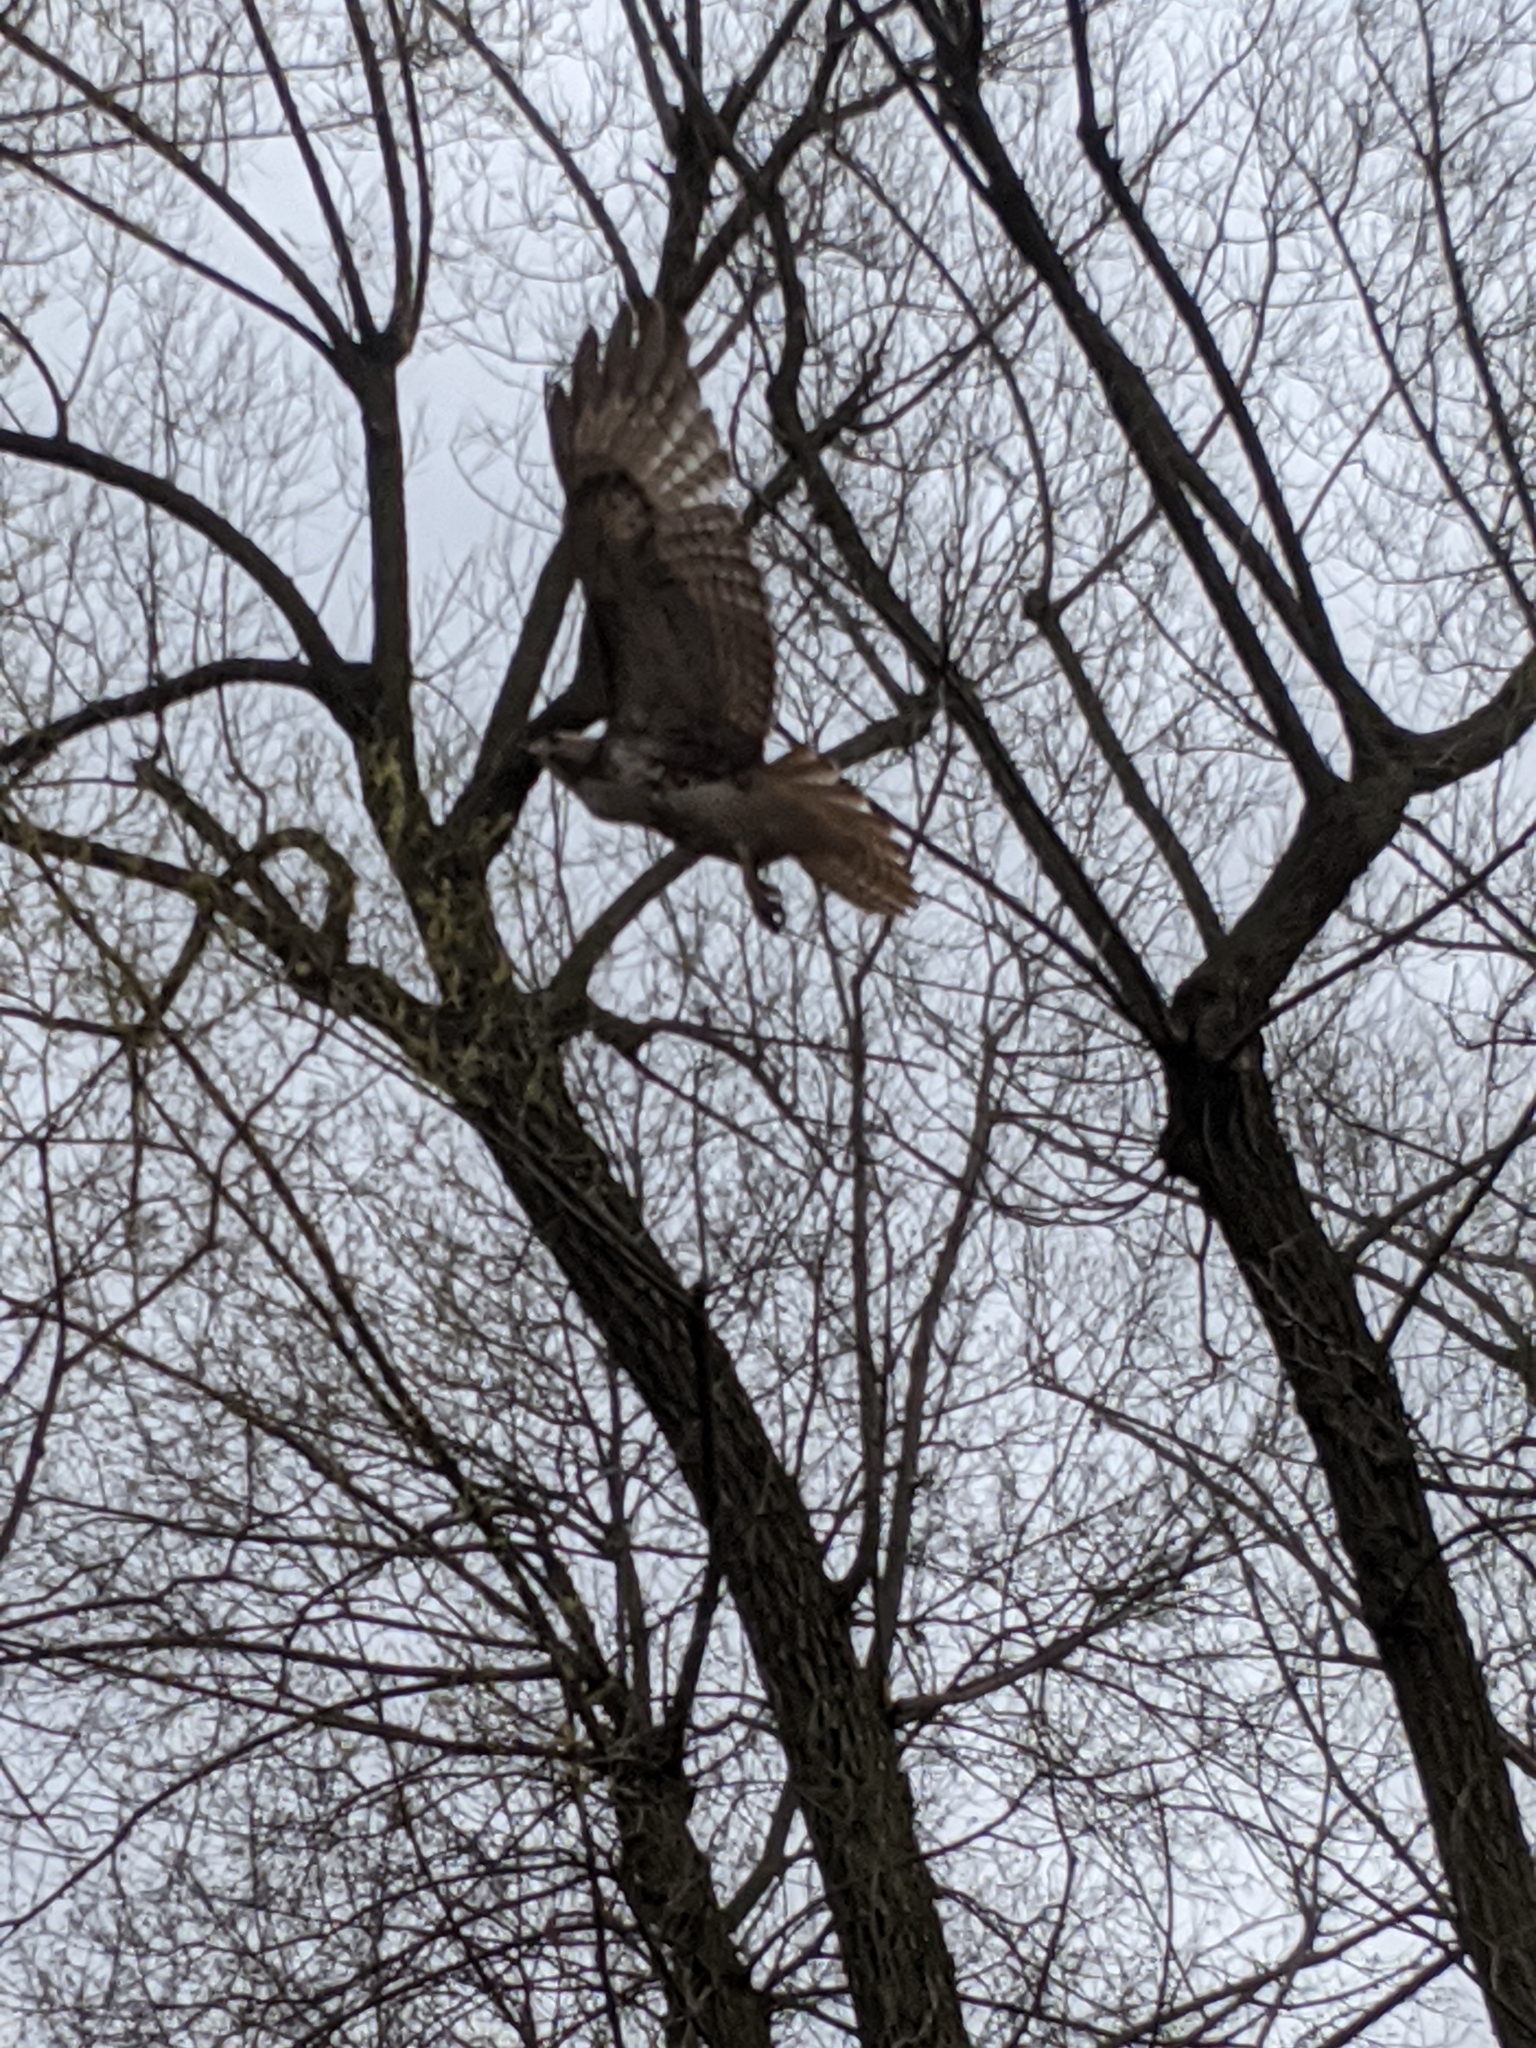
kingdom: Animalia
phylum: Chordata
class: Aves
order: Accipitriformes
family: Accipitridae
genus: Buteo
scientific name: Buteo jamaicensis
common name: Red-tailed hawk
